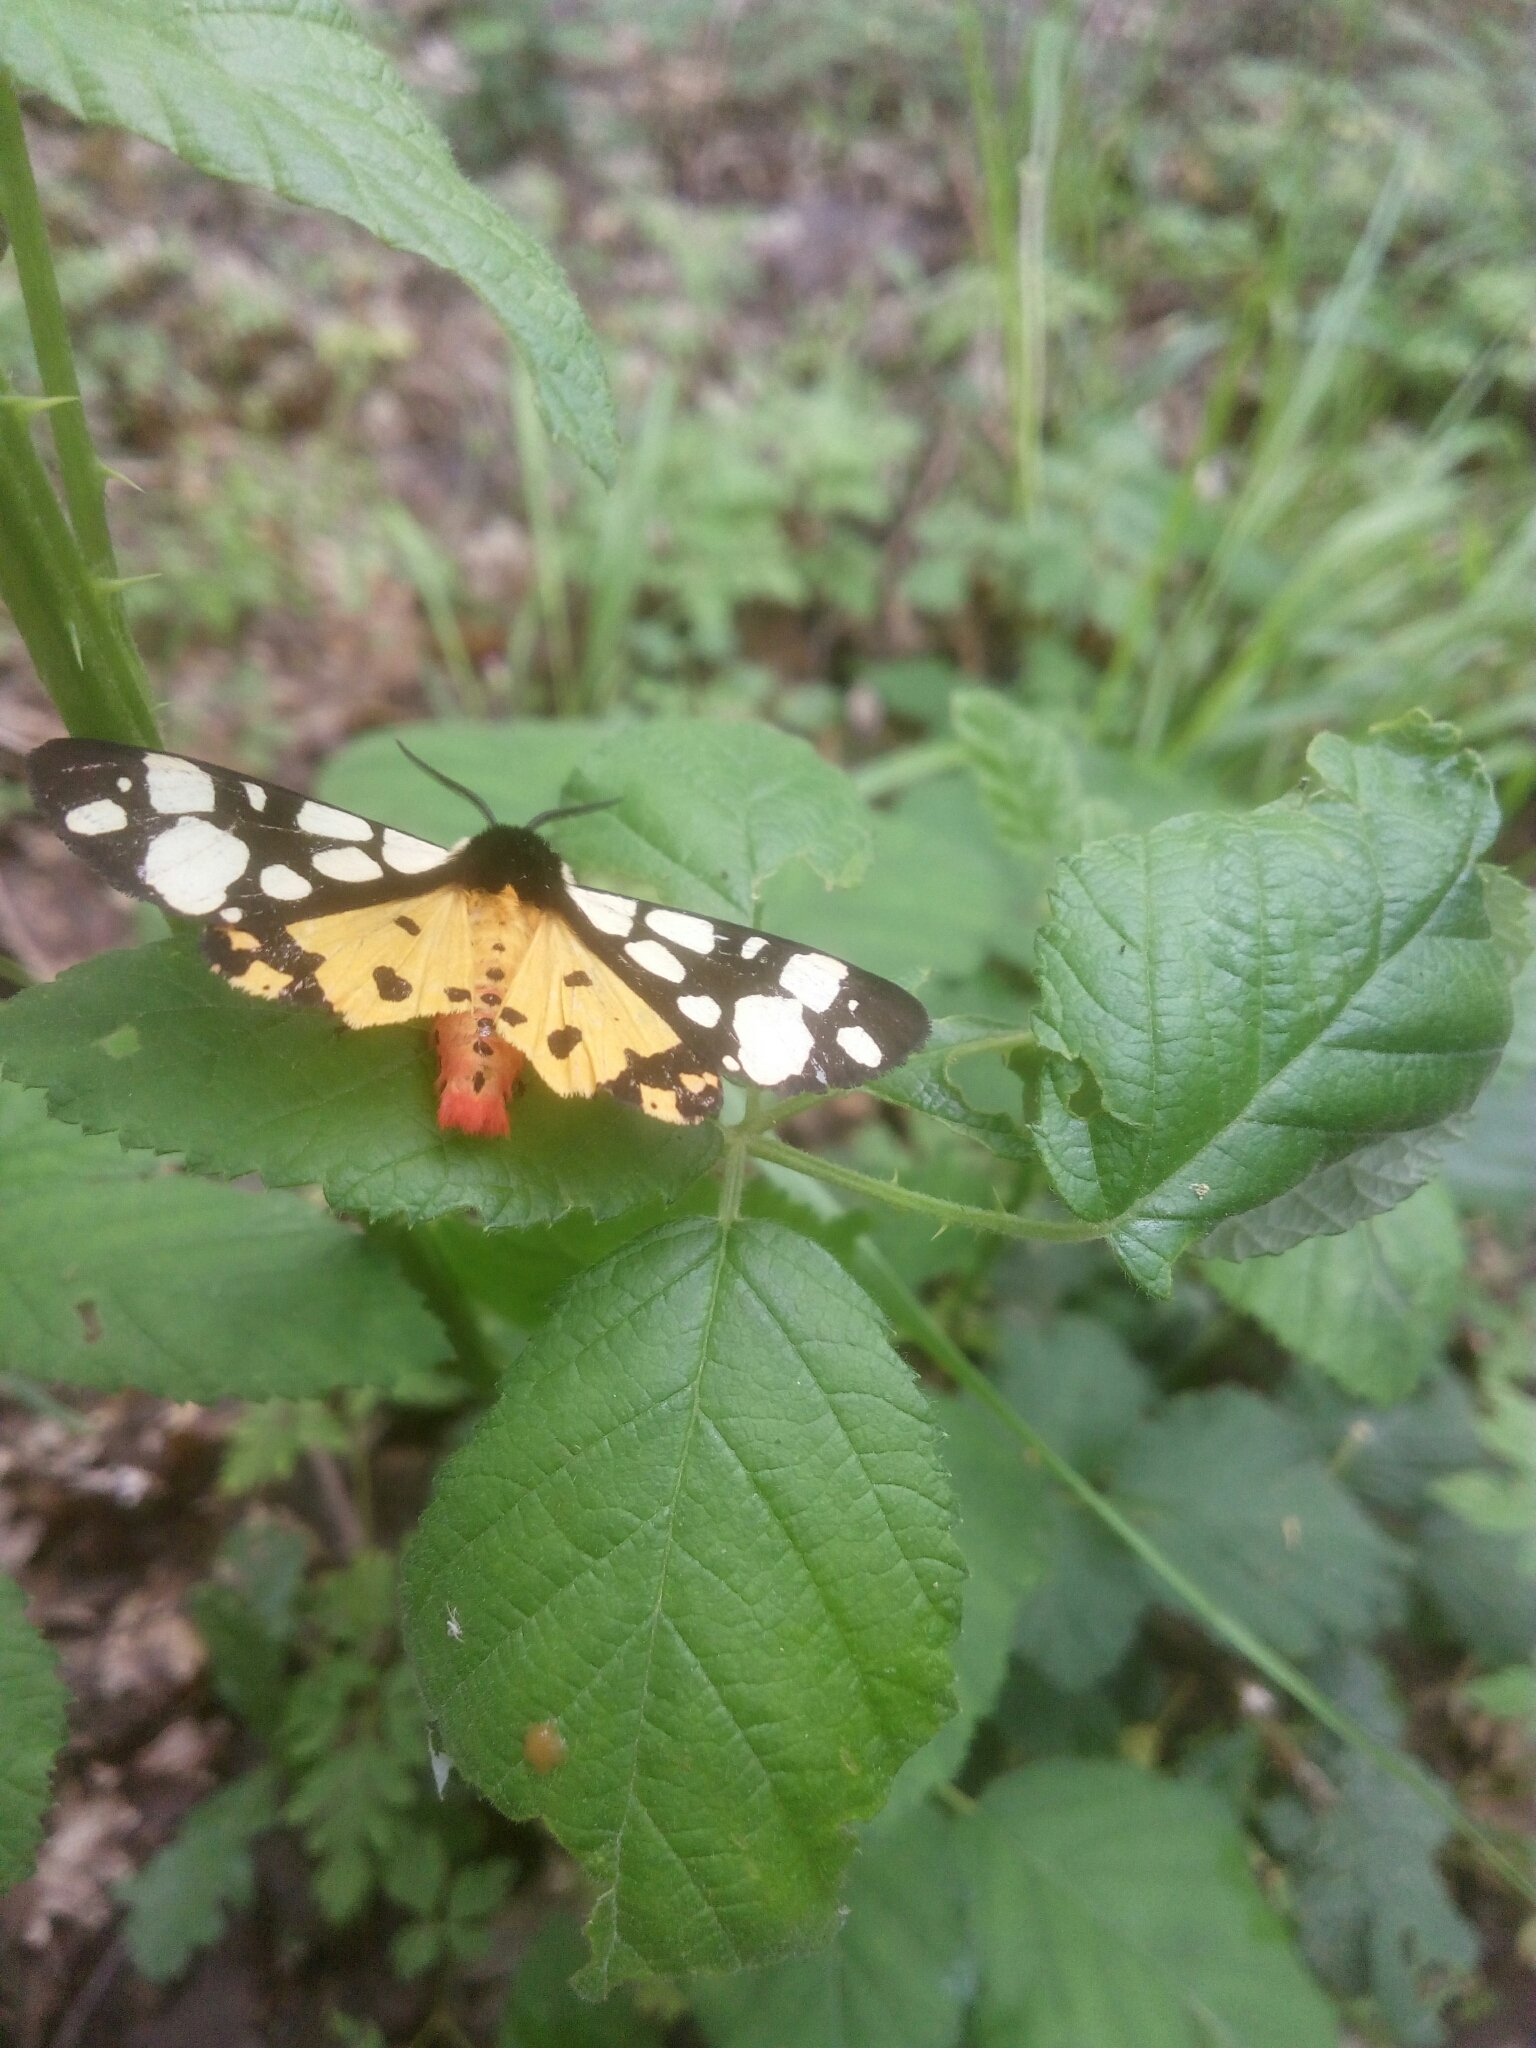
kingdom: Animalia
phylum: Arthropoda
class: Insecta
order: Lepidoptera
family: Erebidae
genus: Epicallia
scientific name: Epicallia villica
